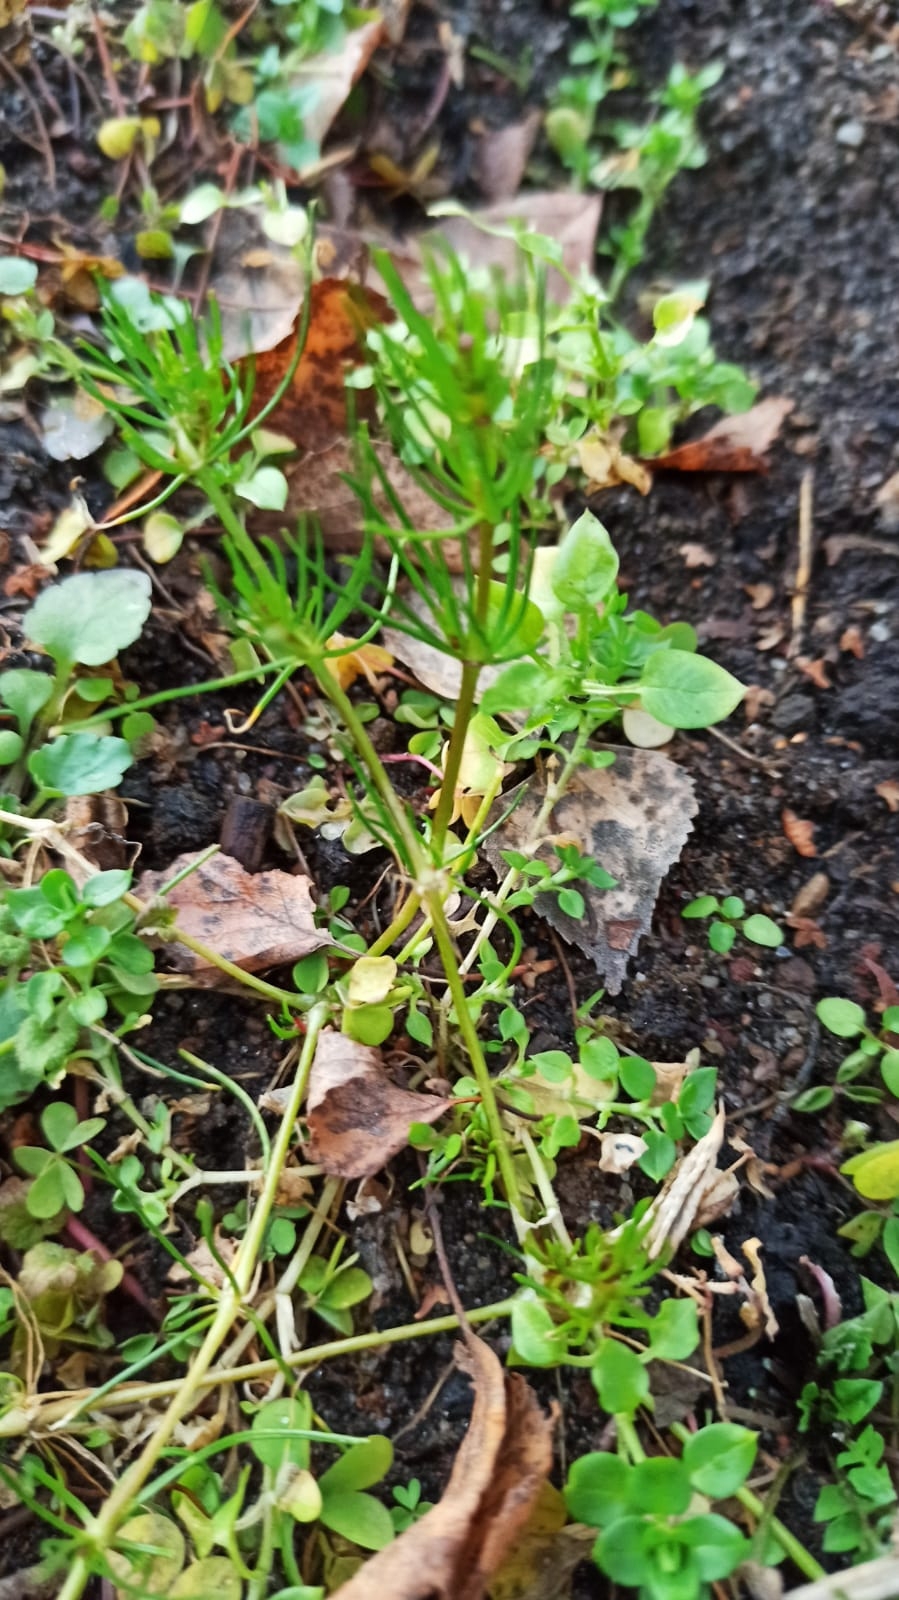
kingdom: Plantae
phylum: Tracheophyta
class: Magnoliopsida
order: Caryophyllales
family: Caryophyllaceae
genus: Spergula
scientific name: Spergula arvensis
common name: Corn spurrey
